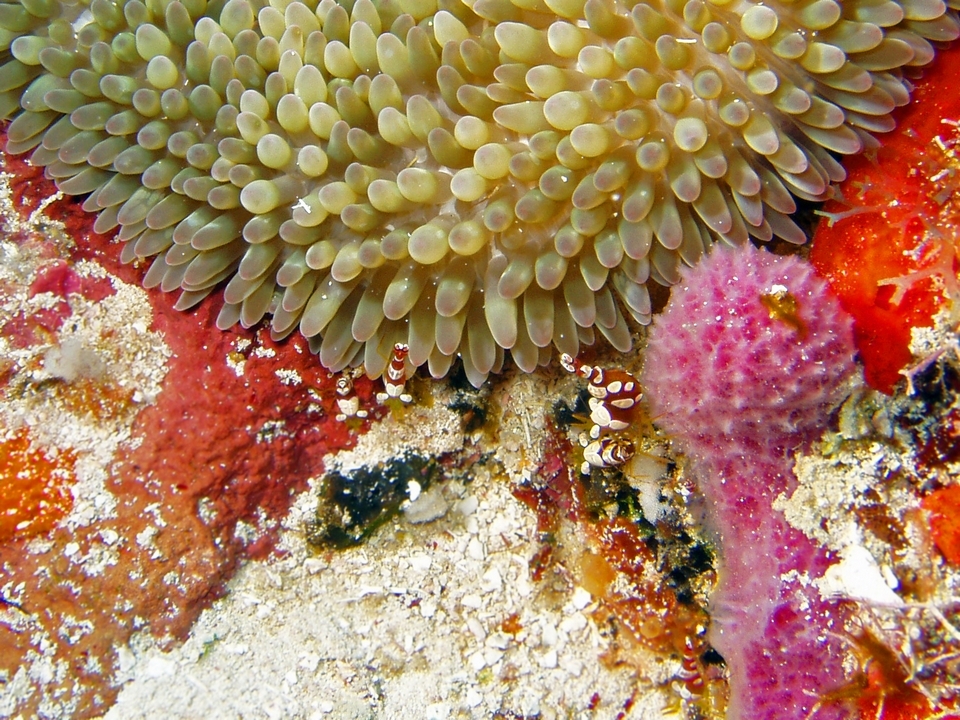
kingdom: Animalia
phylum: Arthropoda
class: Malacostraca
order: Decapoda
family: Thoridae
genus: Thor
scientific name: Thor dicaprio
